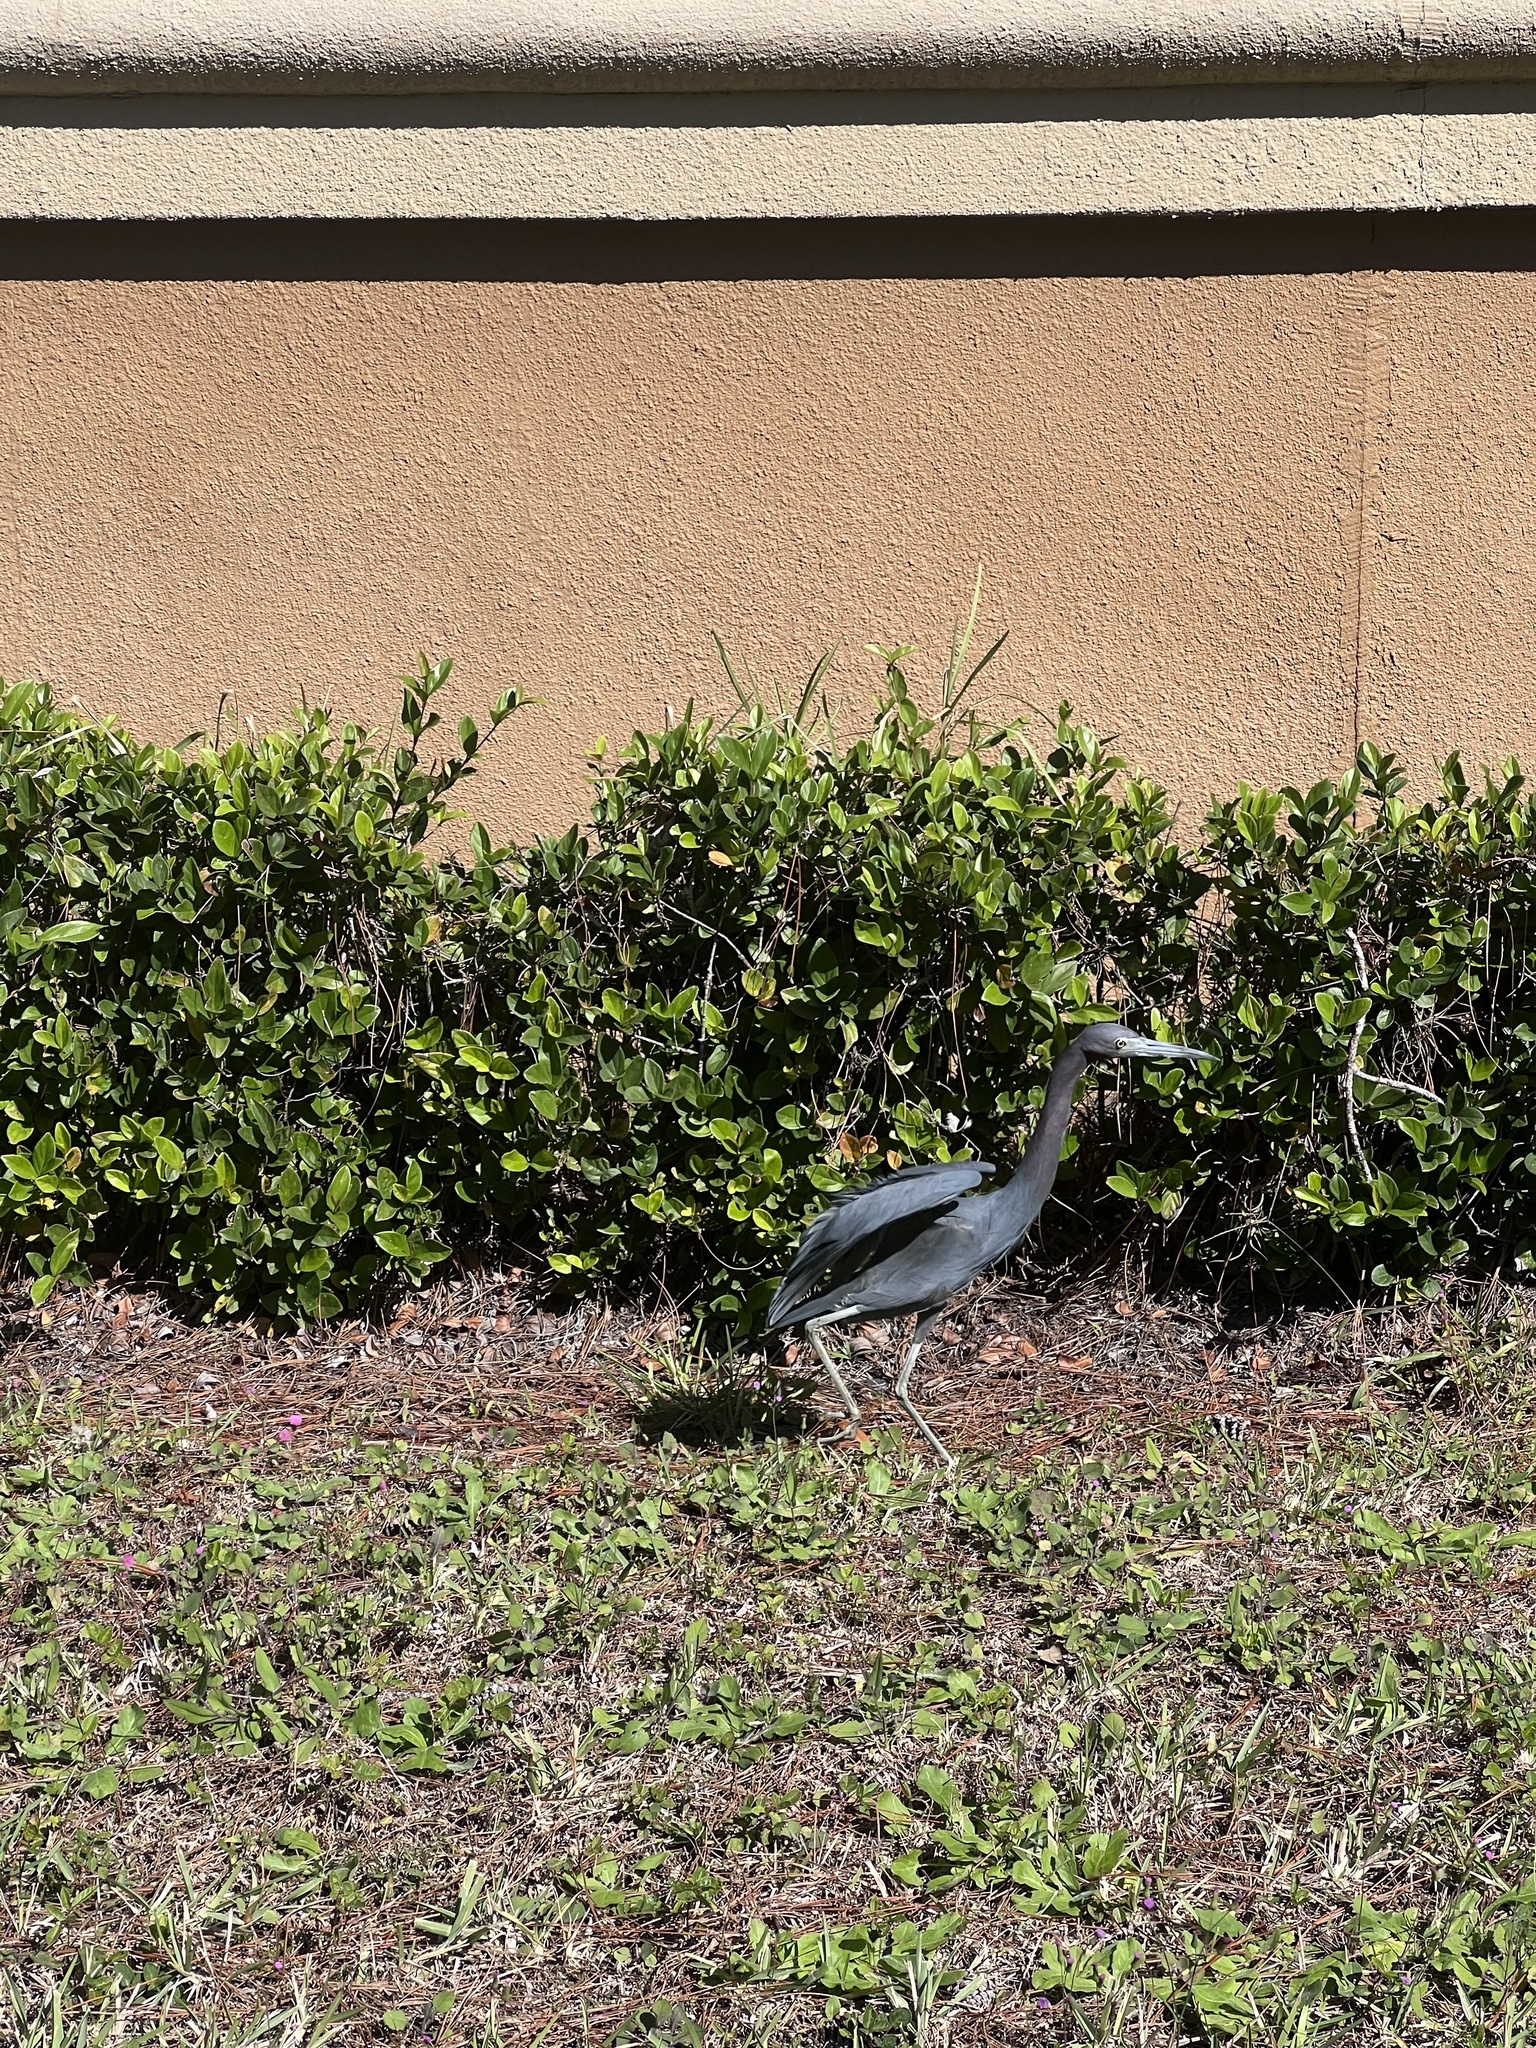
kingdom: Animalia
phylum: Chordata
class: Aves
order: Pelecaniformes
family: Ardeidae
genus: Egretta
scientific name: Egretta caerulea
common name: Little blue heron
